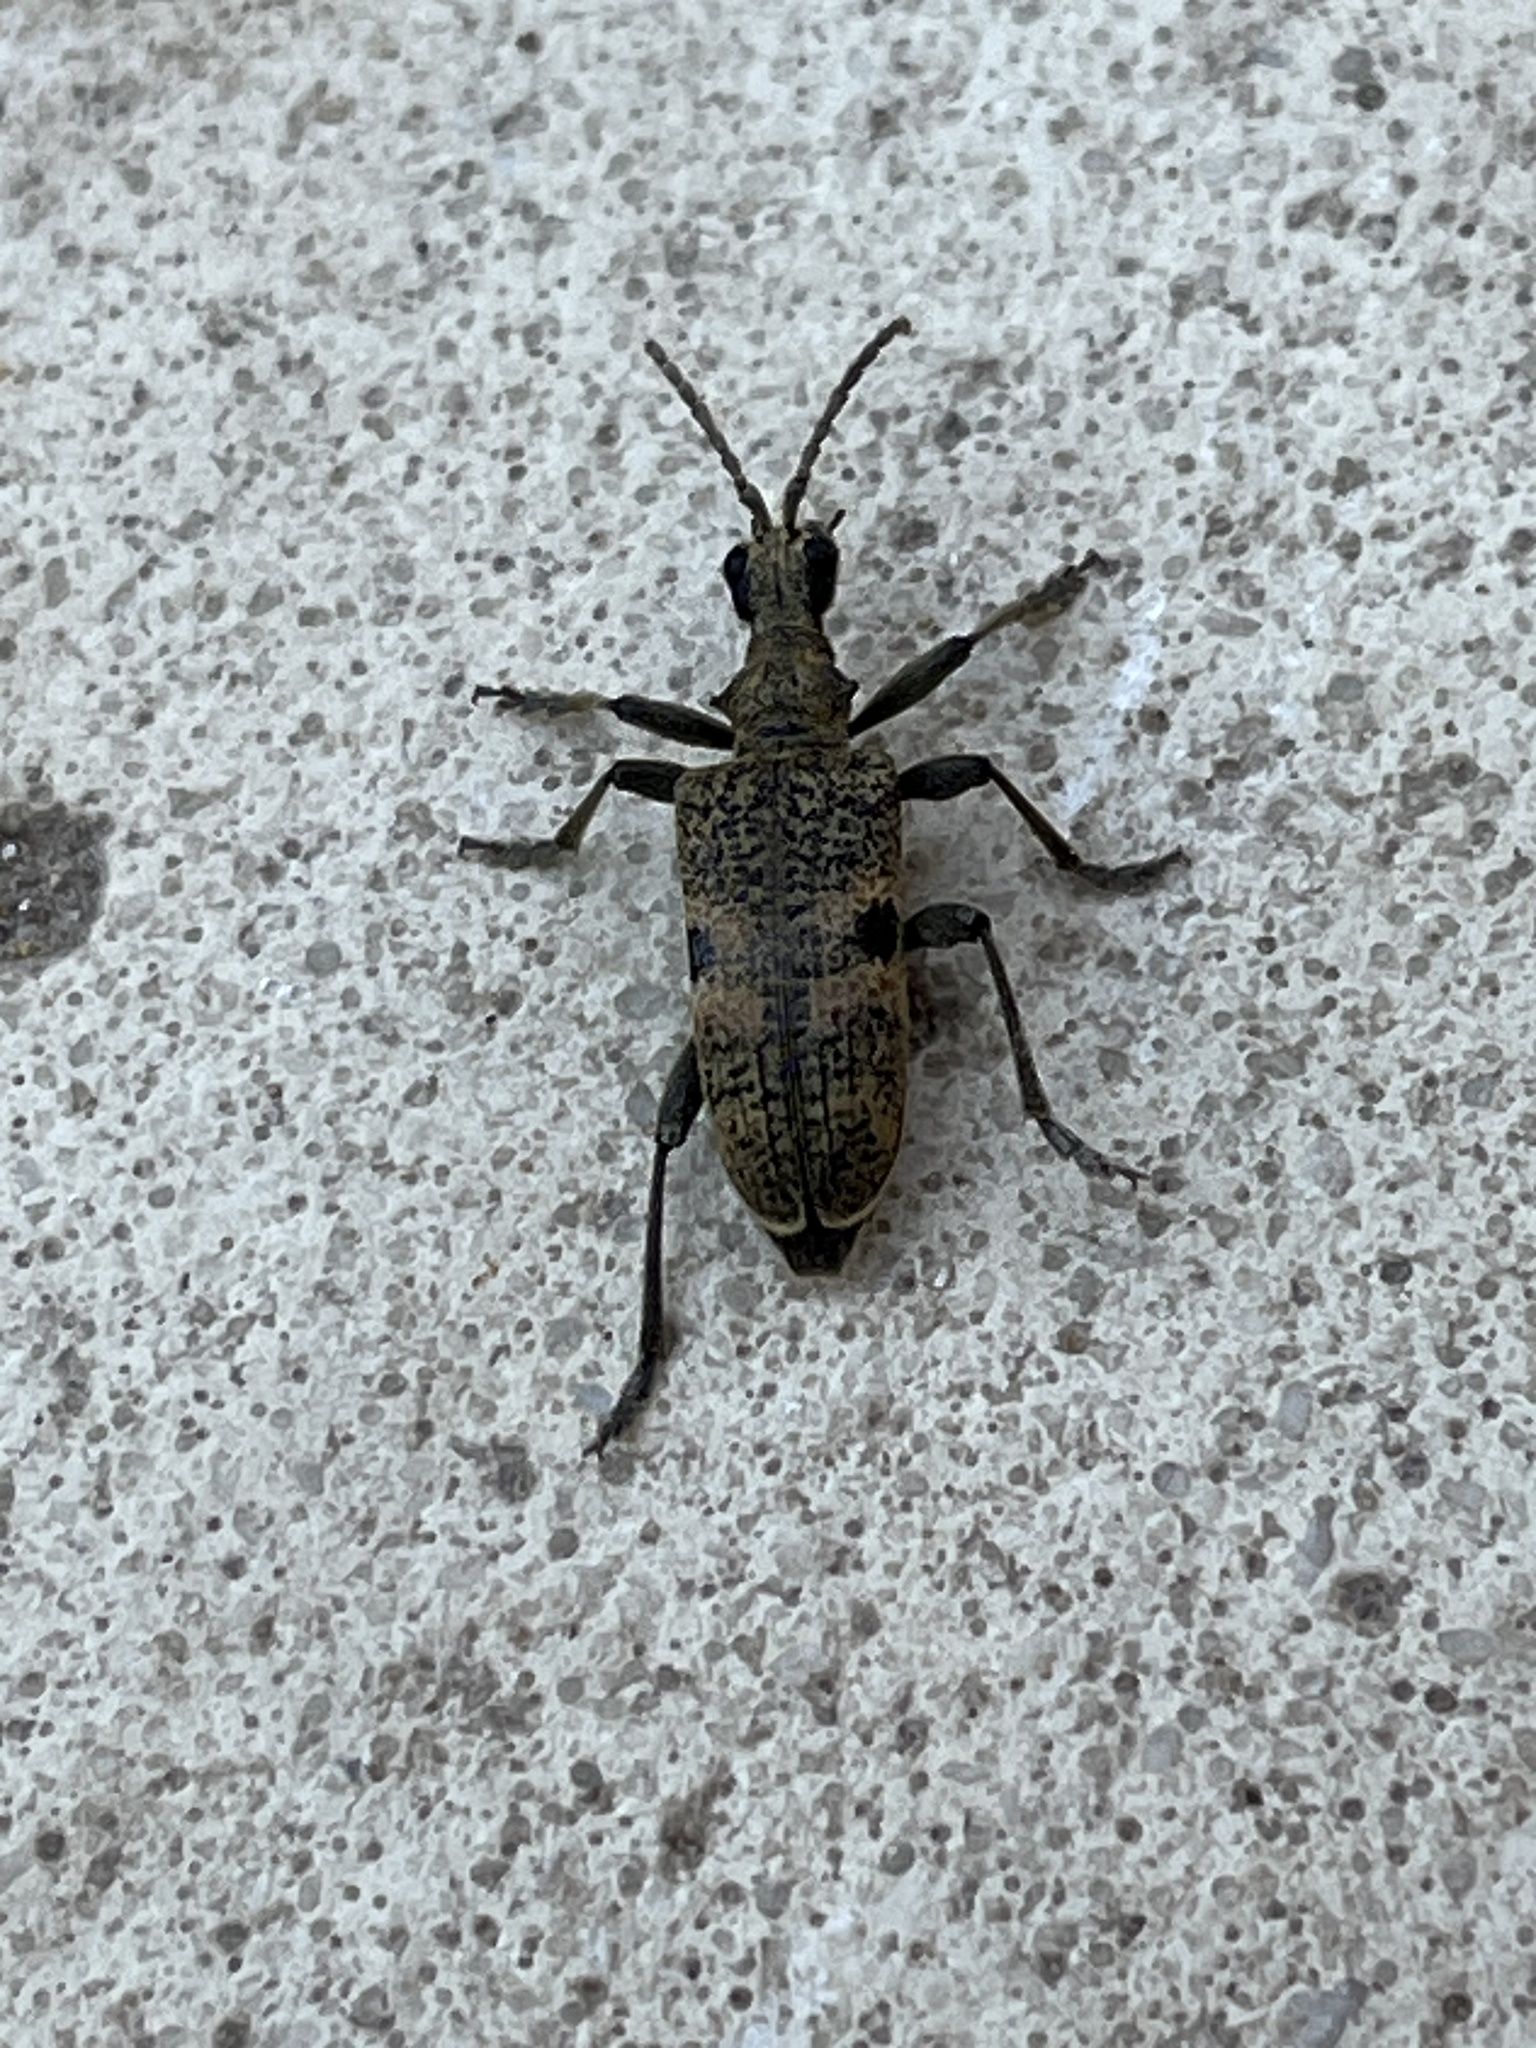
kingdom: Animalia
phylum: Arthropoda
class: Insecta
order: Coleoptera
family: Cerambycidae
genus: Rhagium
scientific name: Rhagium mordax
